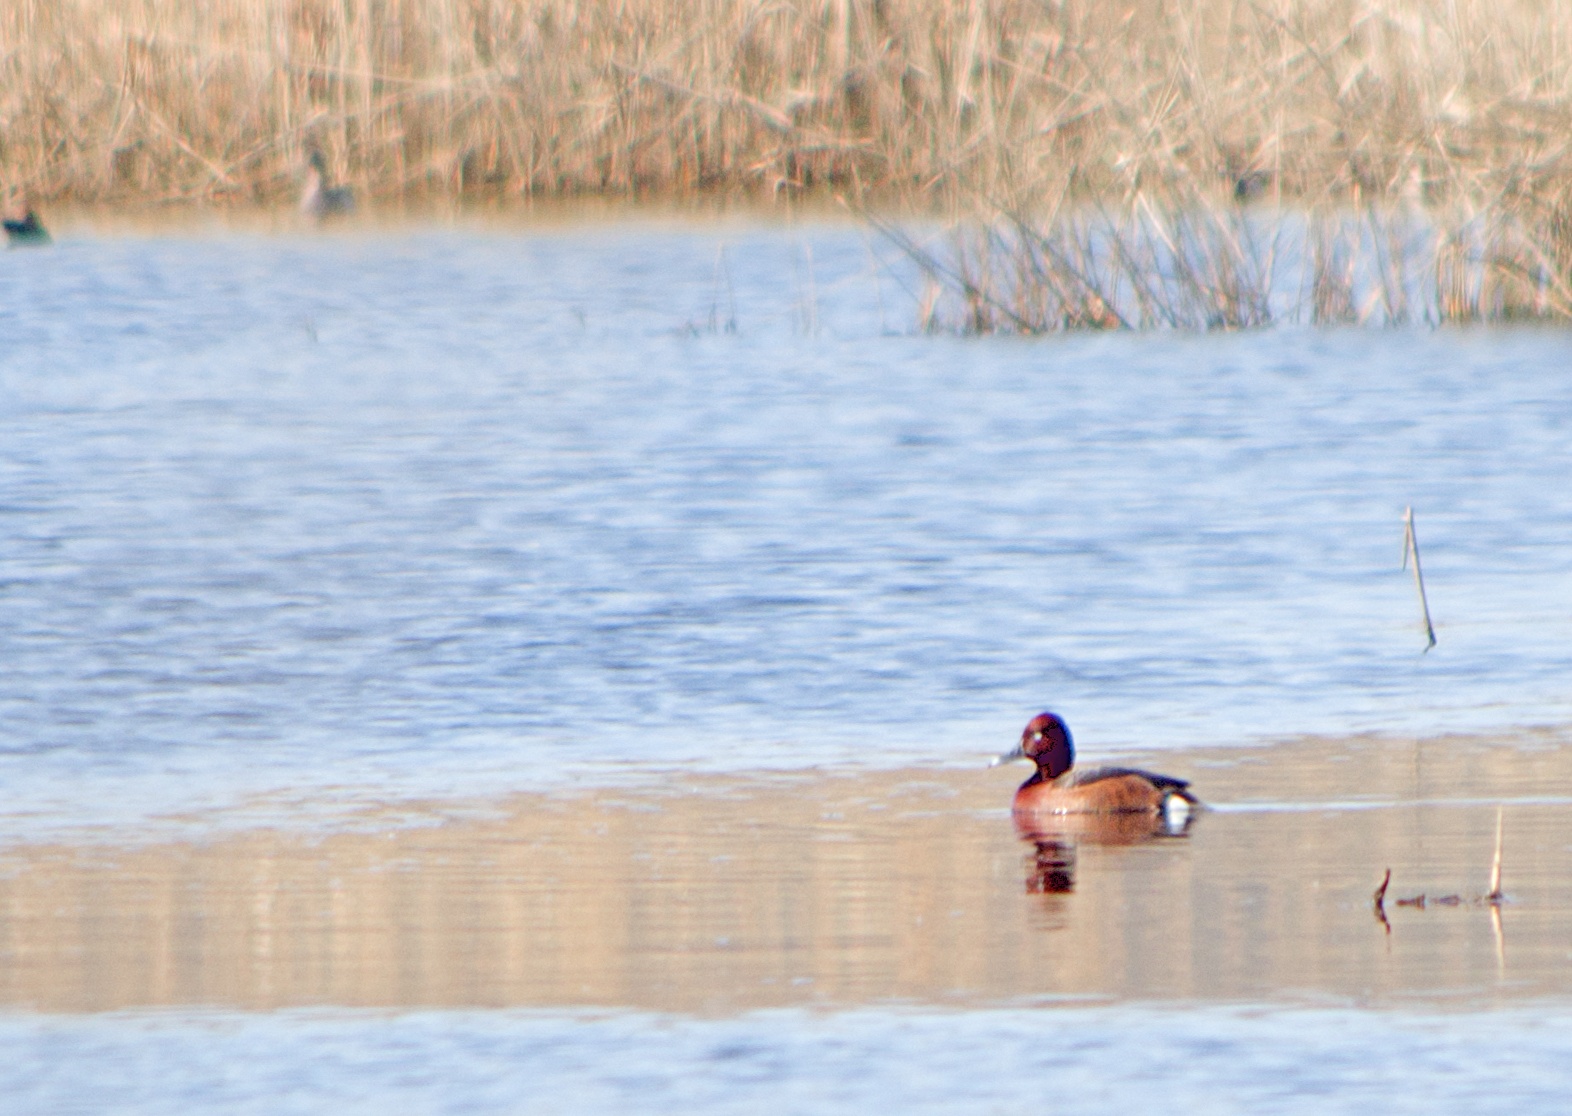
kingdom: Animalia
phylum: Chordata
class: Aves
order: Anseriformes
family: Anatidae
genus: Aythya
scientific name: Aythya nyroca
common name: Ferruginous duck
